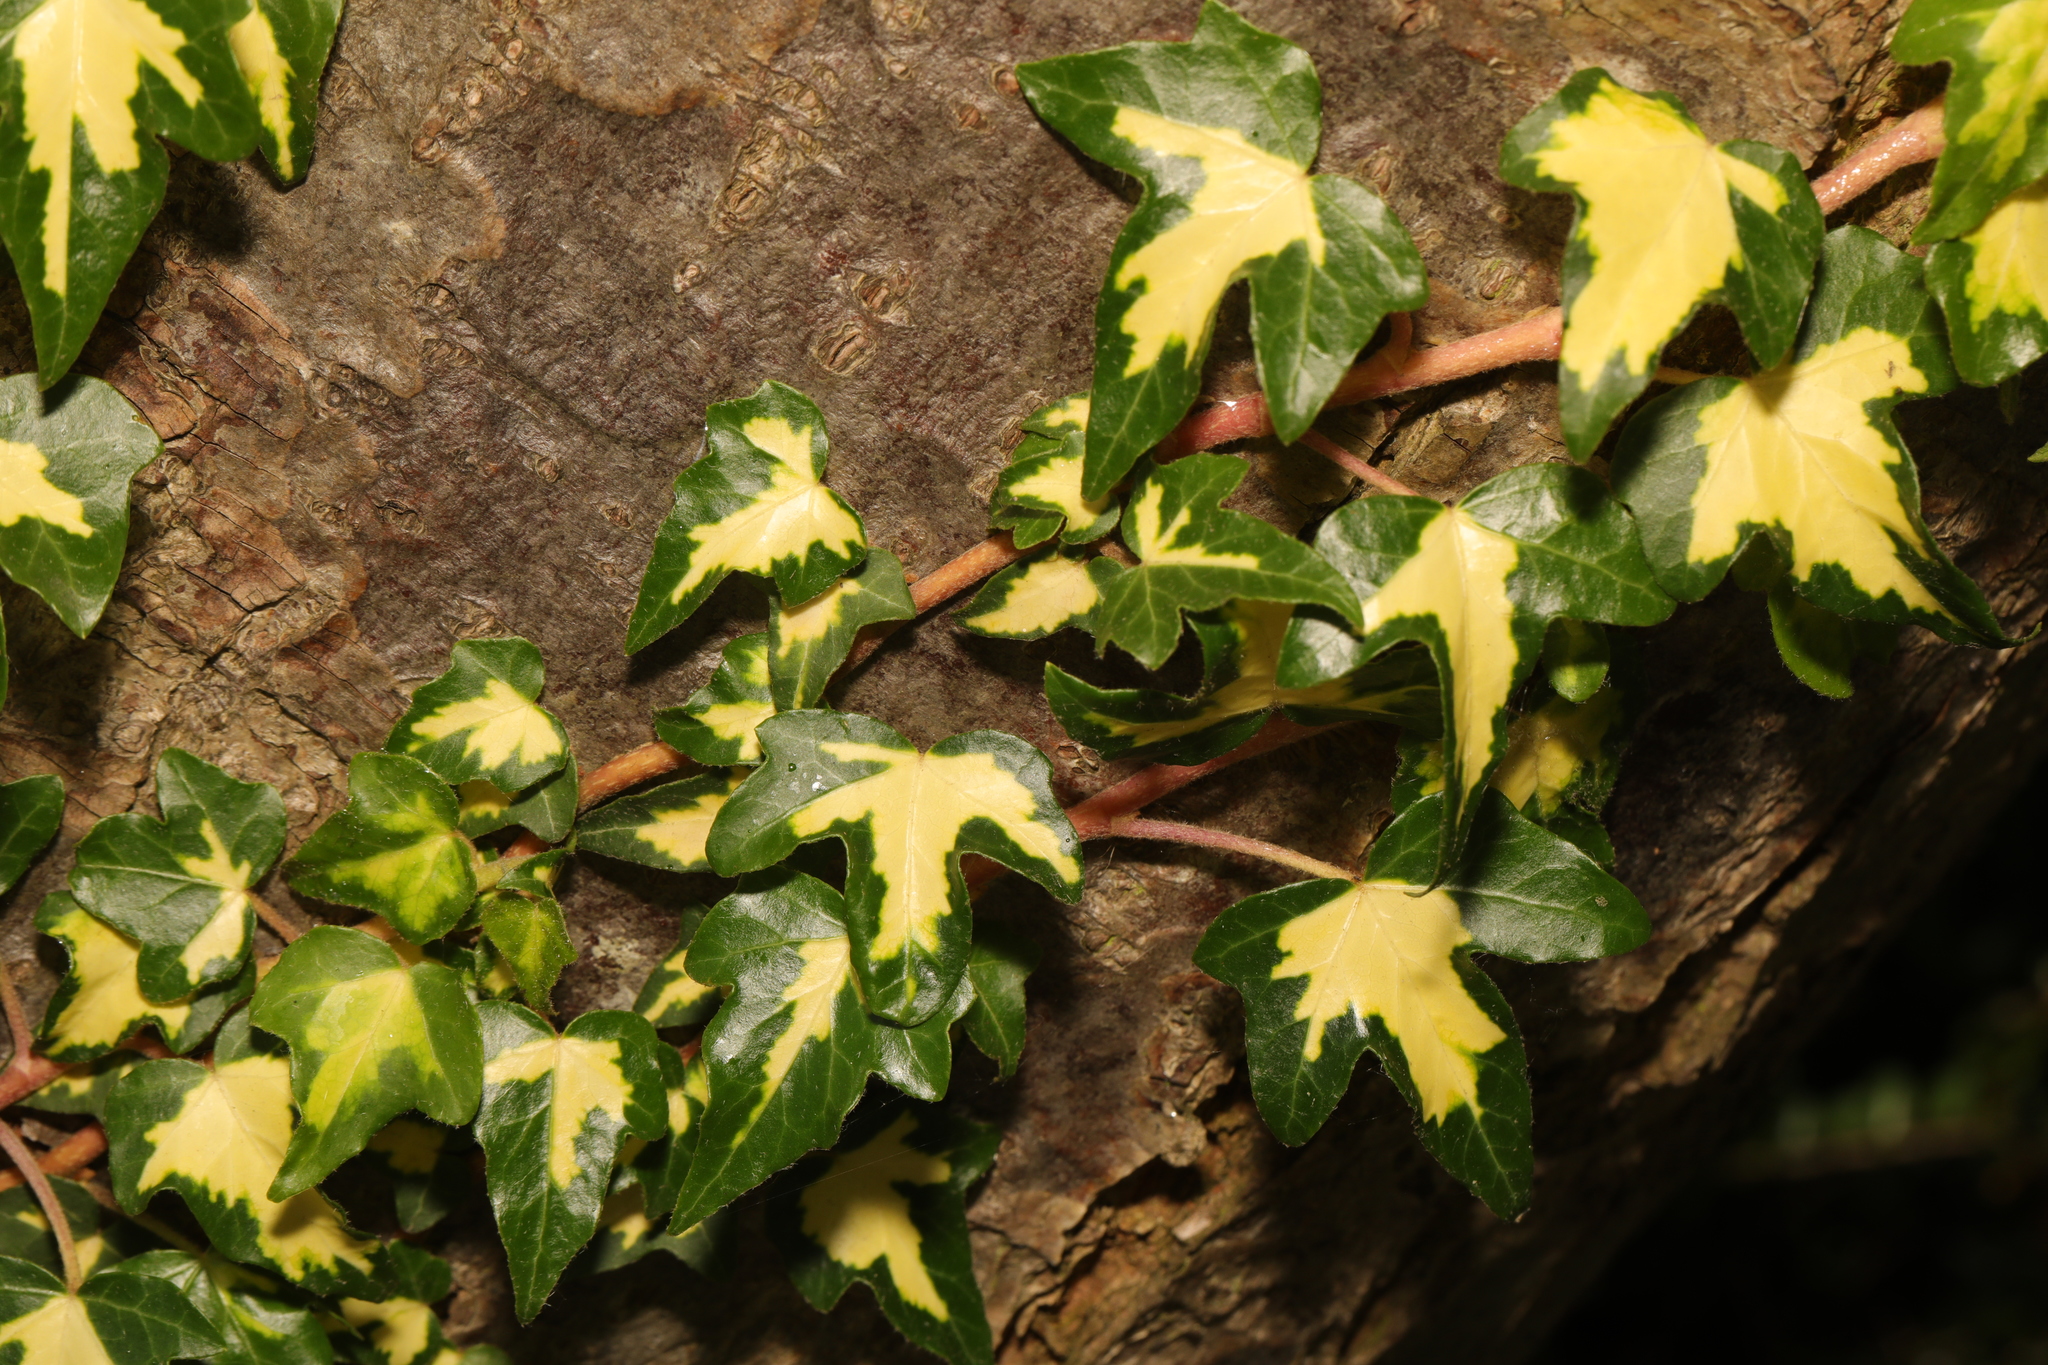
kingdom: Plantae
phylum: Tracheophyta
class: Magnoliopsida
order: Apiales
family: Araliaceae
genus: Hedera
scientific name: Hedera helix
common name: Ivy
